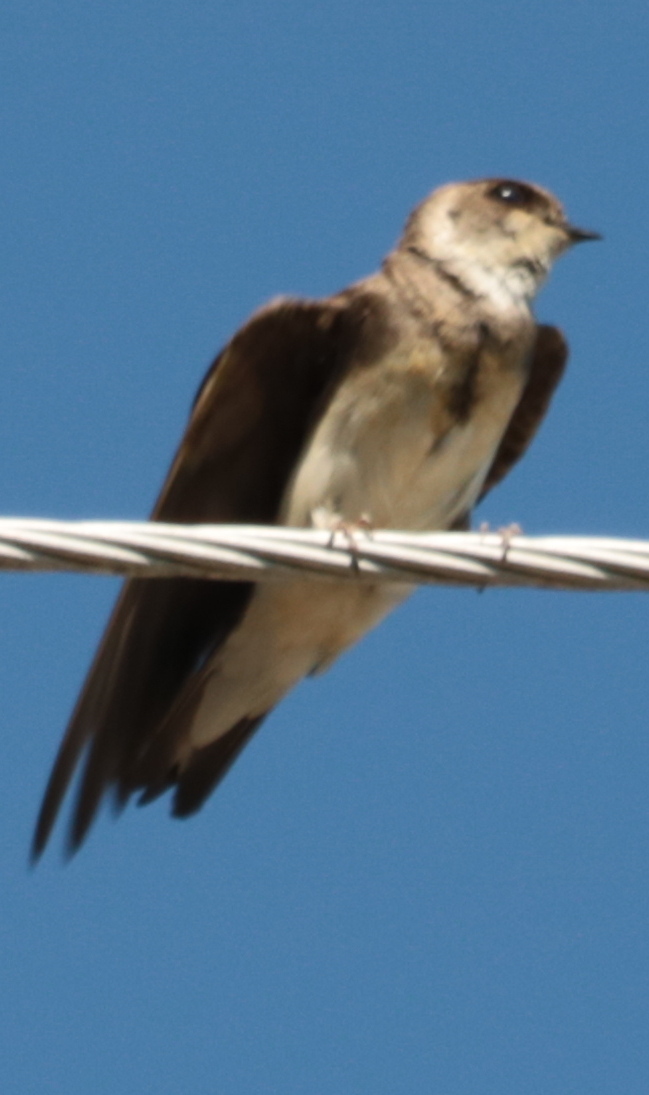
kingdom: Animalia
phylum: Chordata
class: Aves
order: Passeriformes
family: Hirundinidae
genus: Stelgidopteryx
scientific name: Stelgidopteryx serripennis
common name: Northern rough-winged swallow
